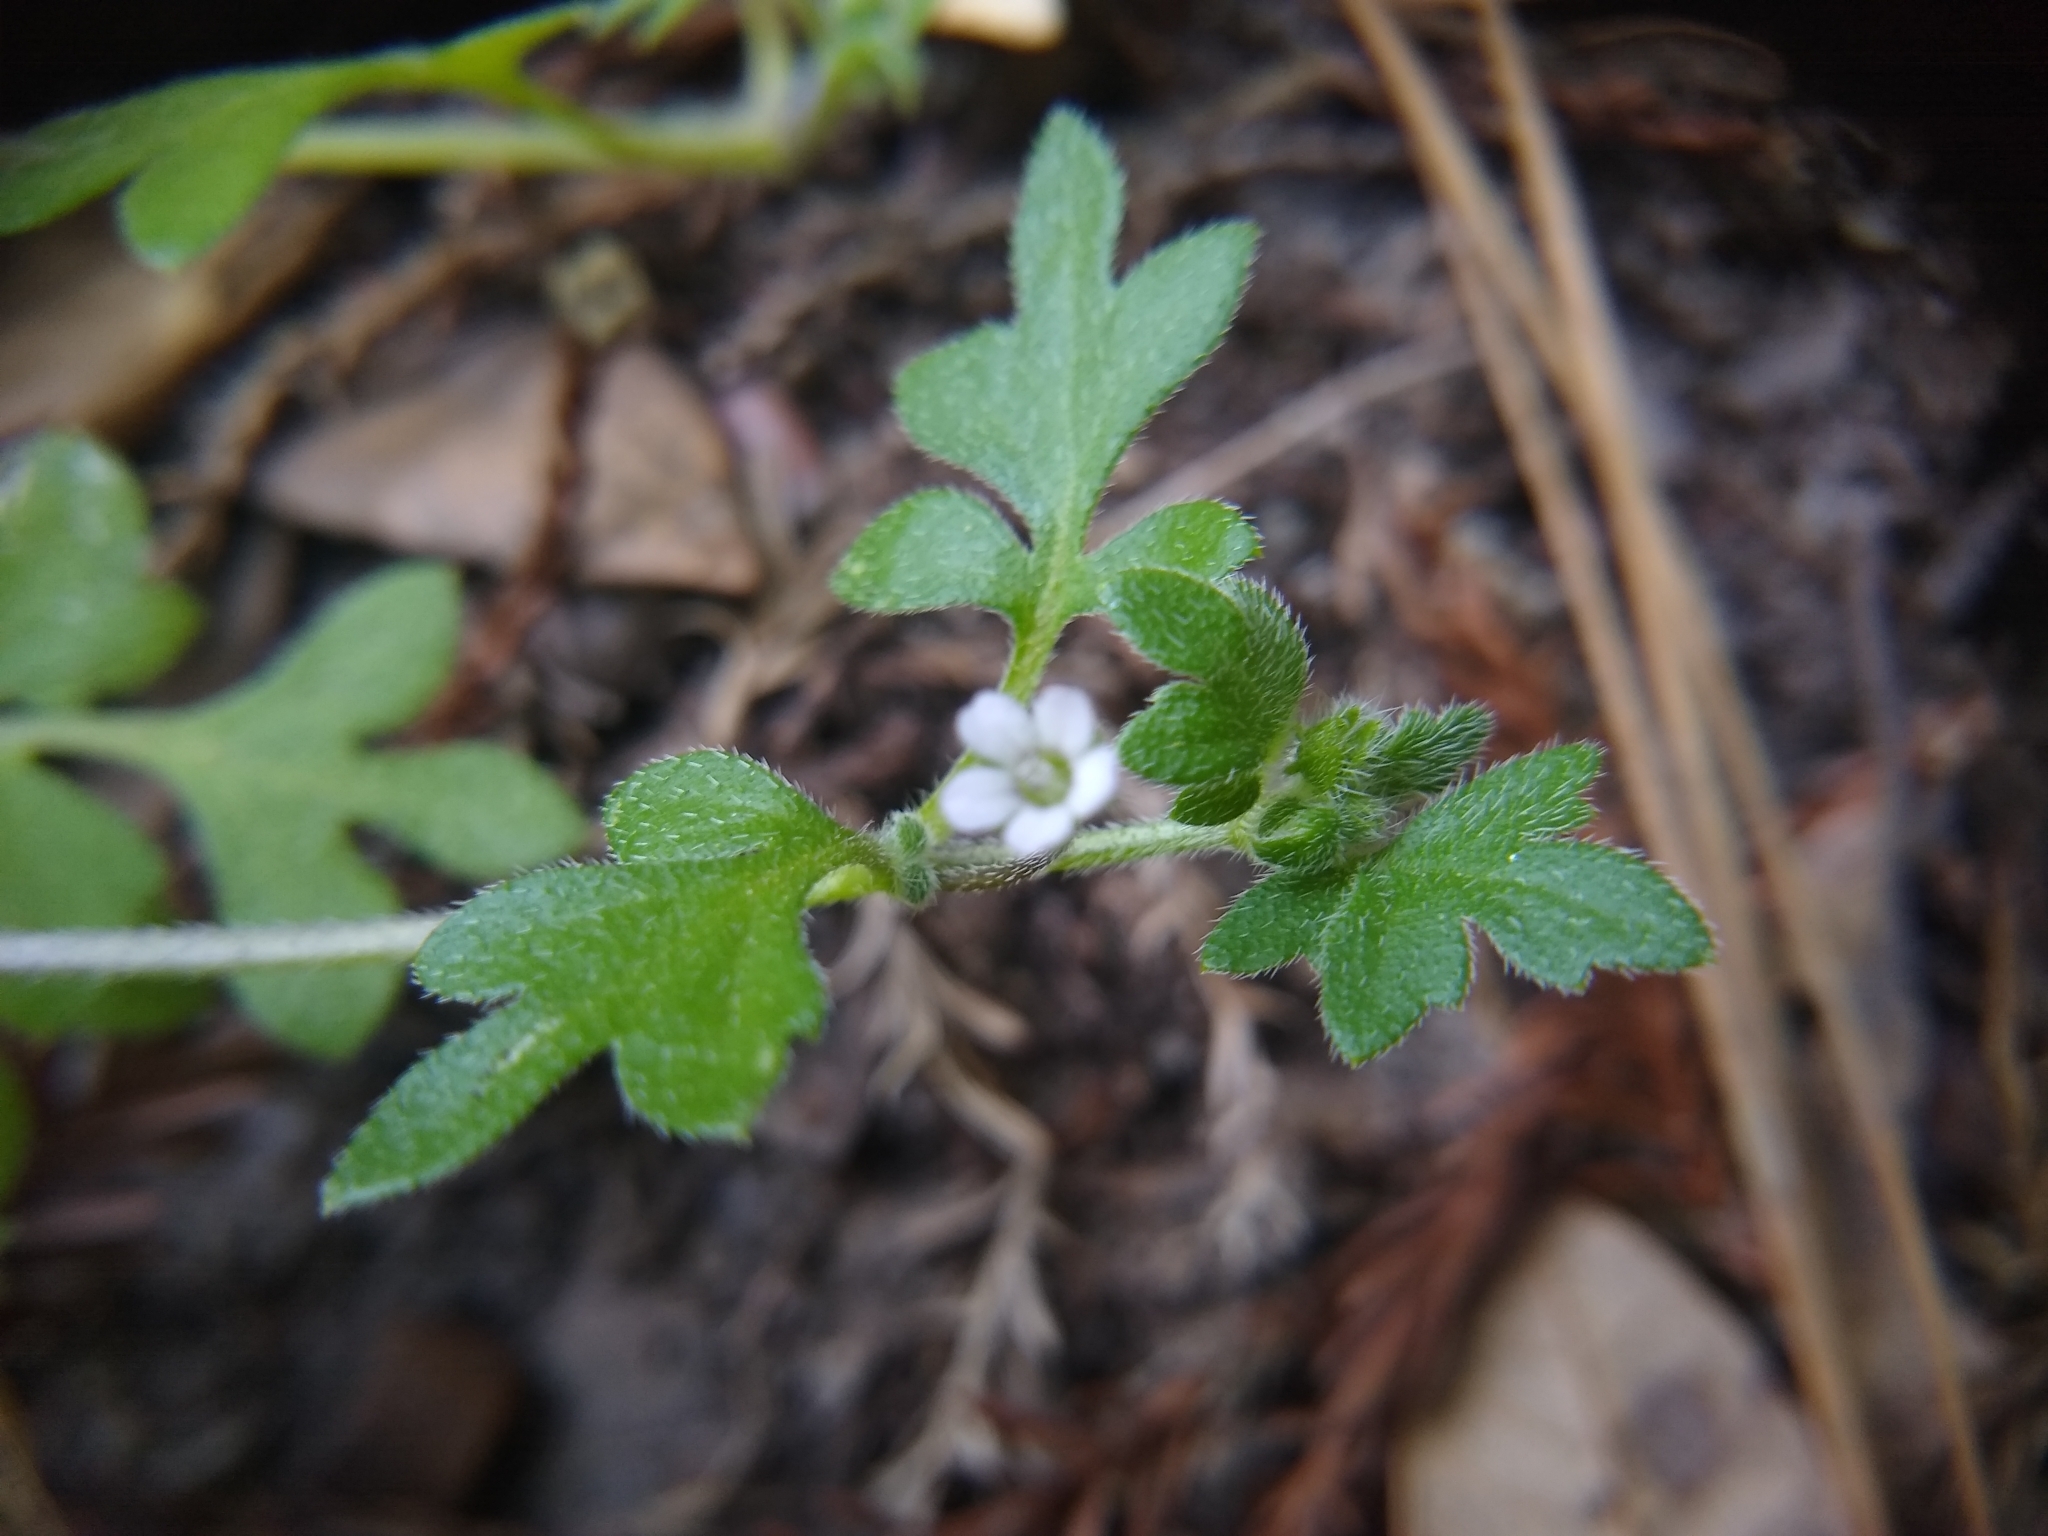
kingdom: Plantae
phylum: Tracheophyta
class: Magnoliopsida
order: Boraginales
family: Hydrophyllaceae
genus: Nemophila
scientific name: Nemophila parviflora
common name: Small-flowered baby-blue-eyes
